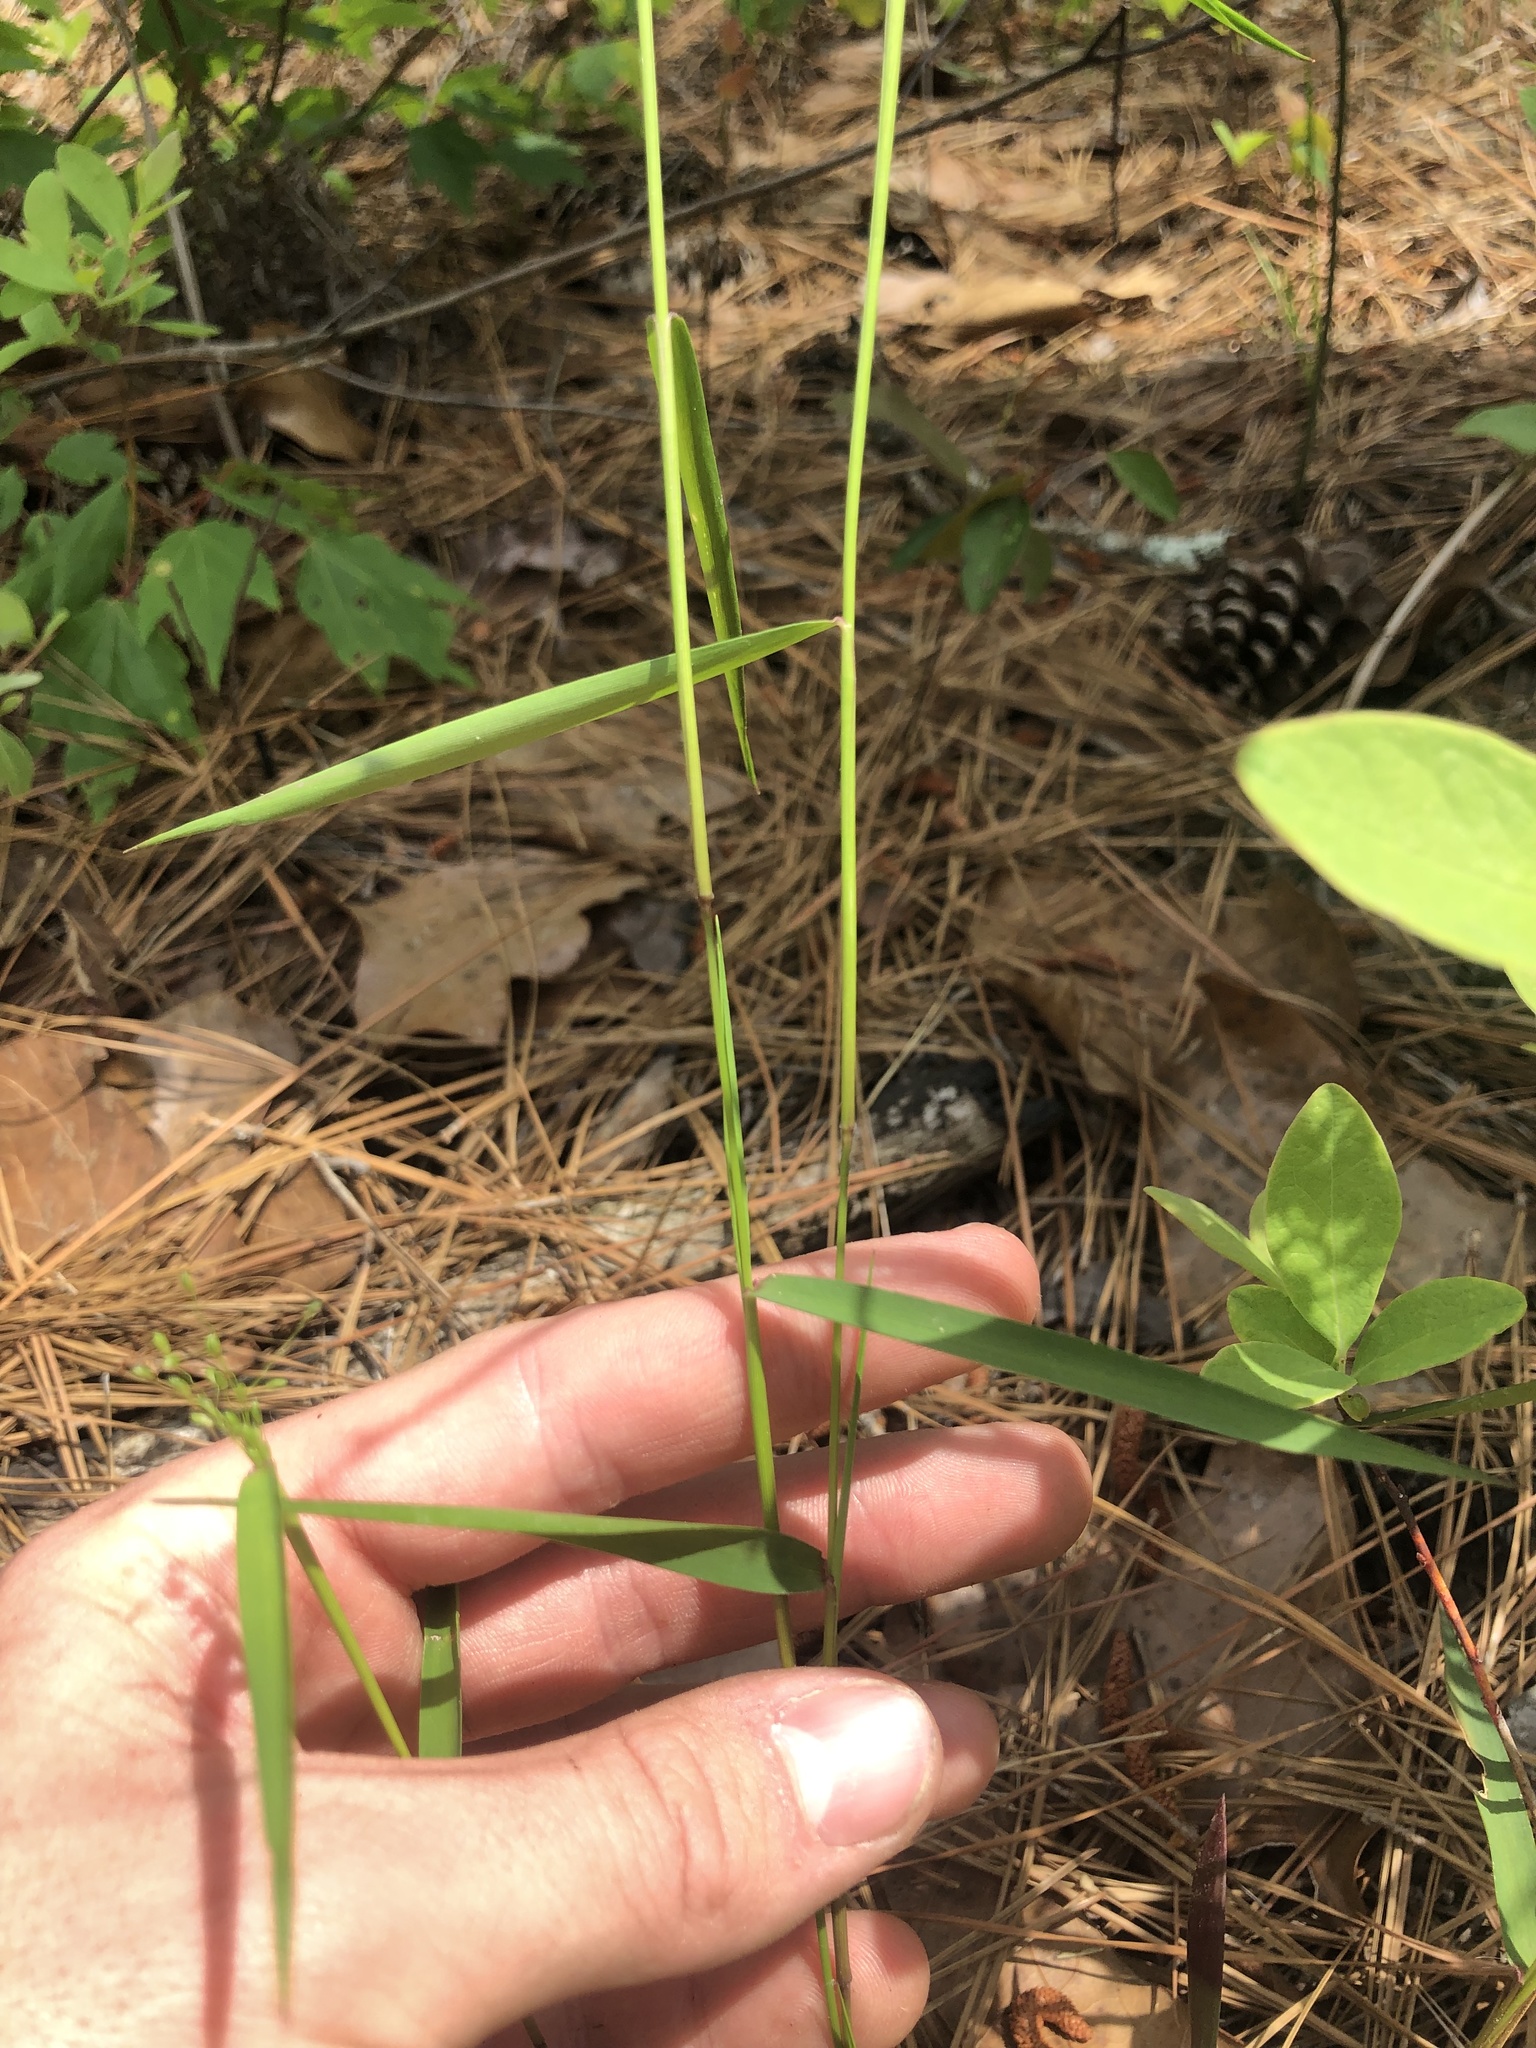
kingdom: Plantae
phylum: Tracheophyta
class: Liliopsida
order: Poales
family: Poaceae
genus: Dichanthelium
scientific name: Dichanthelium dichotomum
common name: Cypress panicgrass
